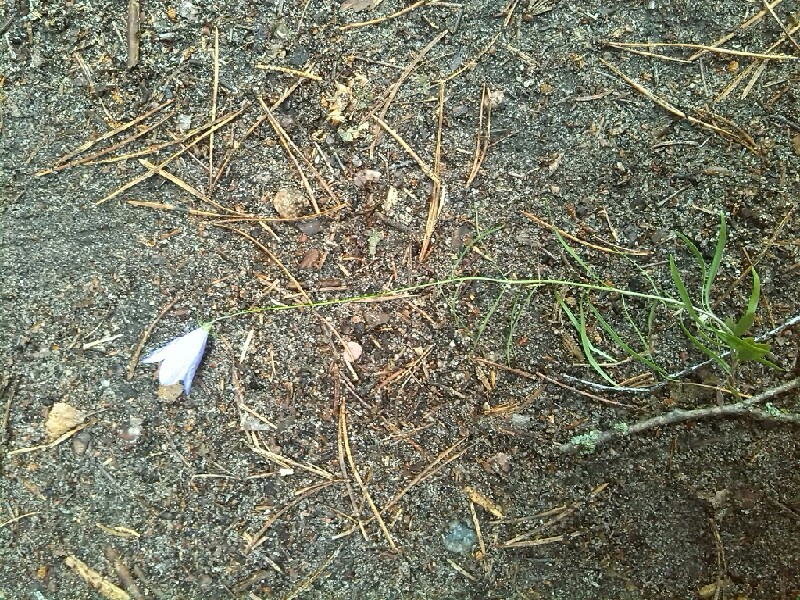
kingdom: Plantae
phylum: Tracheophyta
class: Magnoliopsida
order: Asterales
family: Campanulaceae
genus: Campanula
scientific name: Campanula rotundifolia
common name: Harebell
